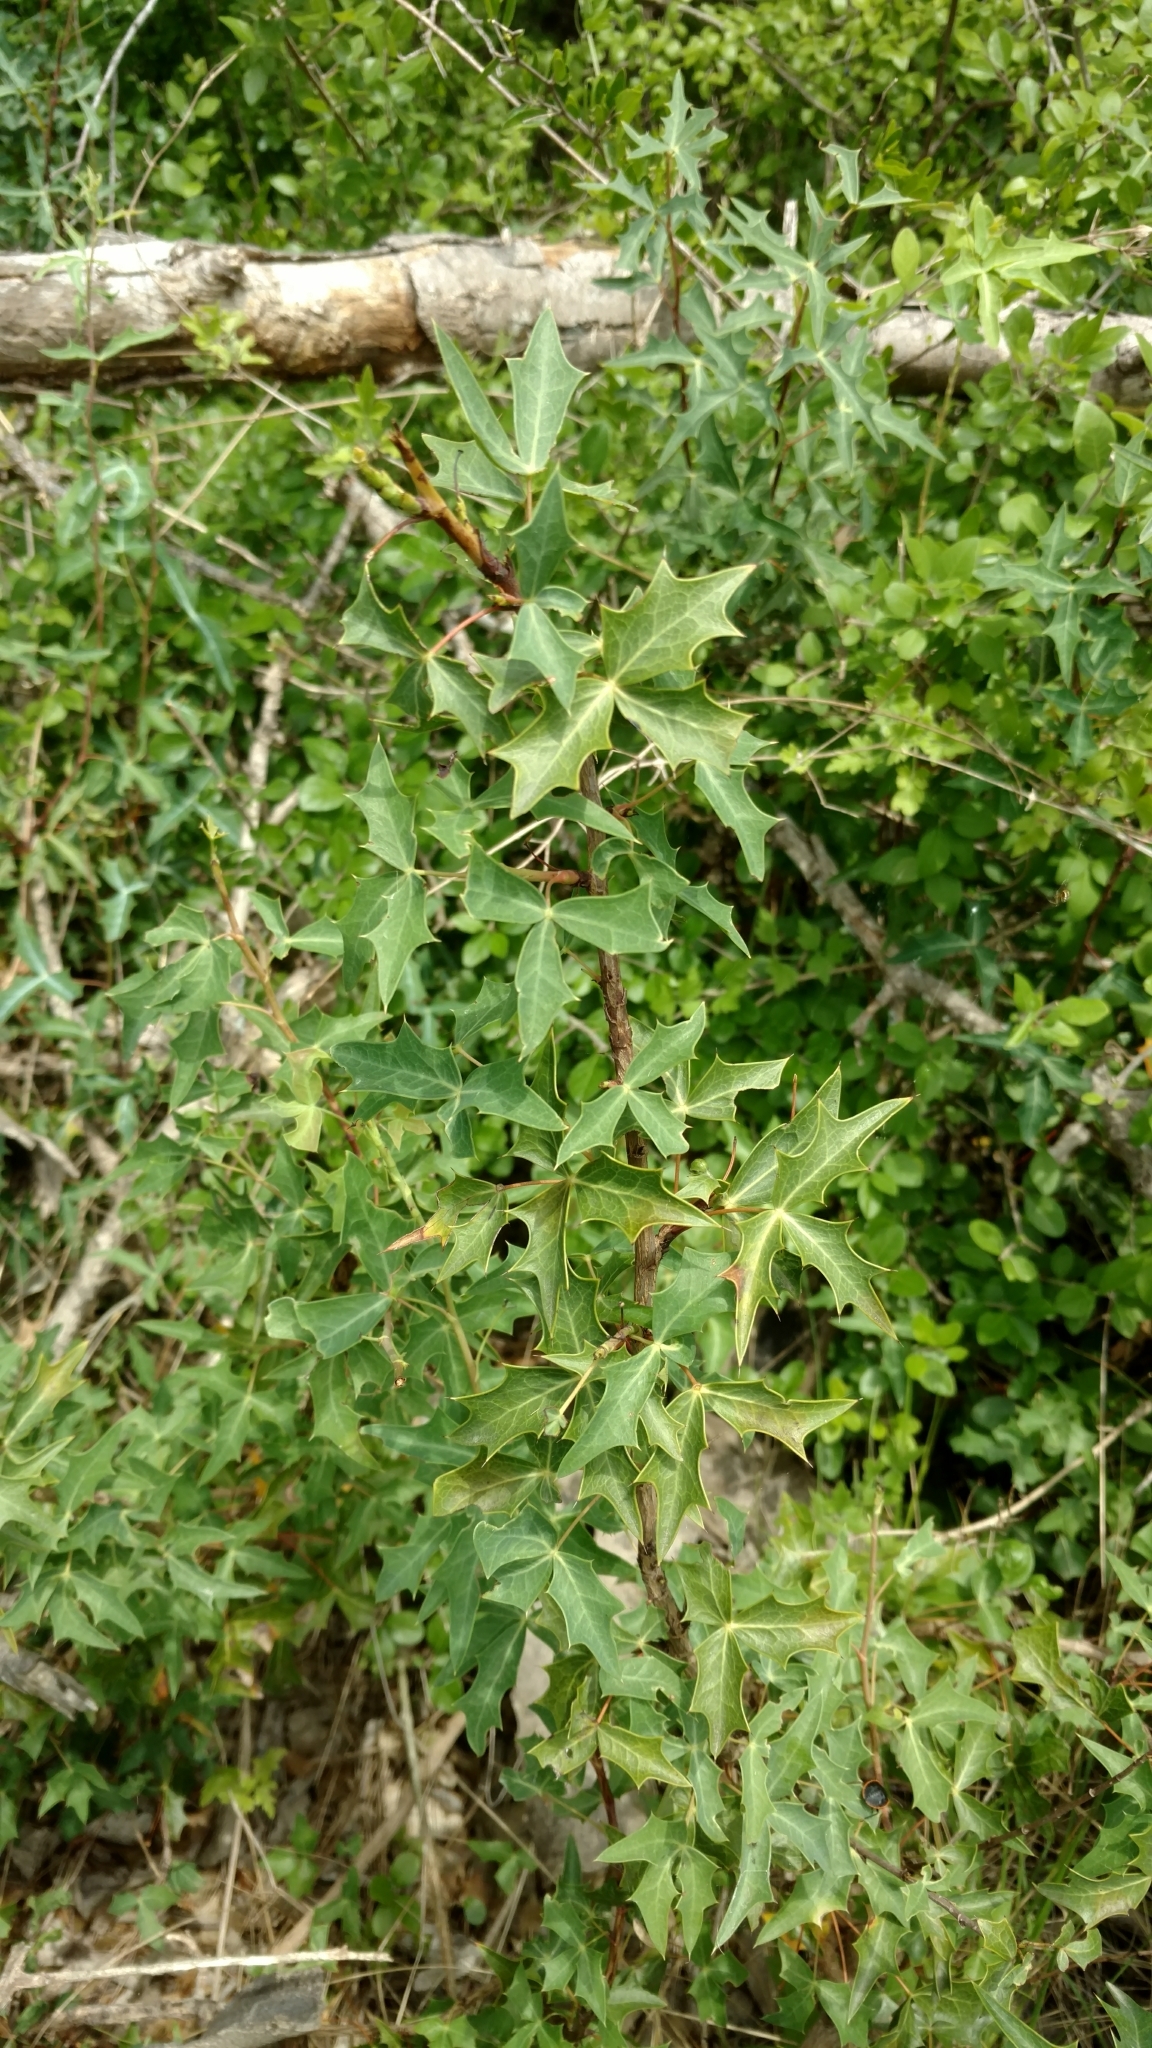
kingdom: Plantae
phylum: Tracheophyta
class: Magnoliopsida
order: Ranunculales
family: Berberidaceae
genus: Alloberberis
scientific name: Alloberberis trifoliolata
